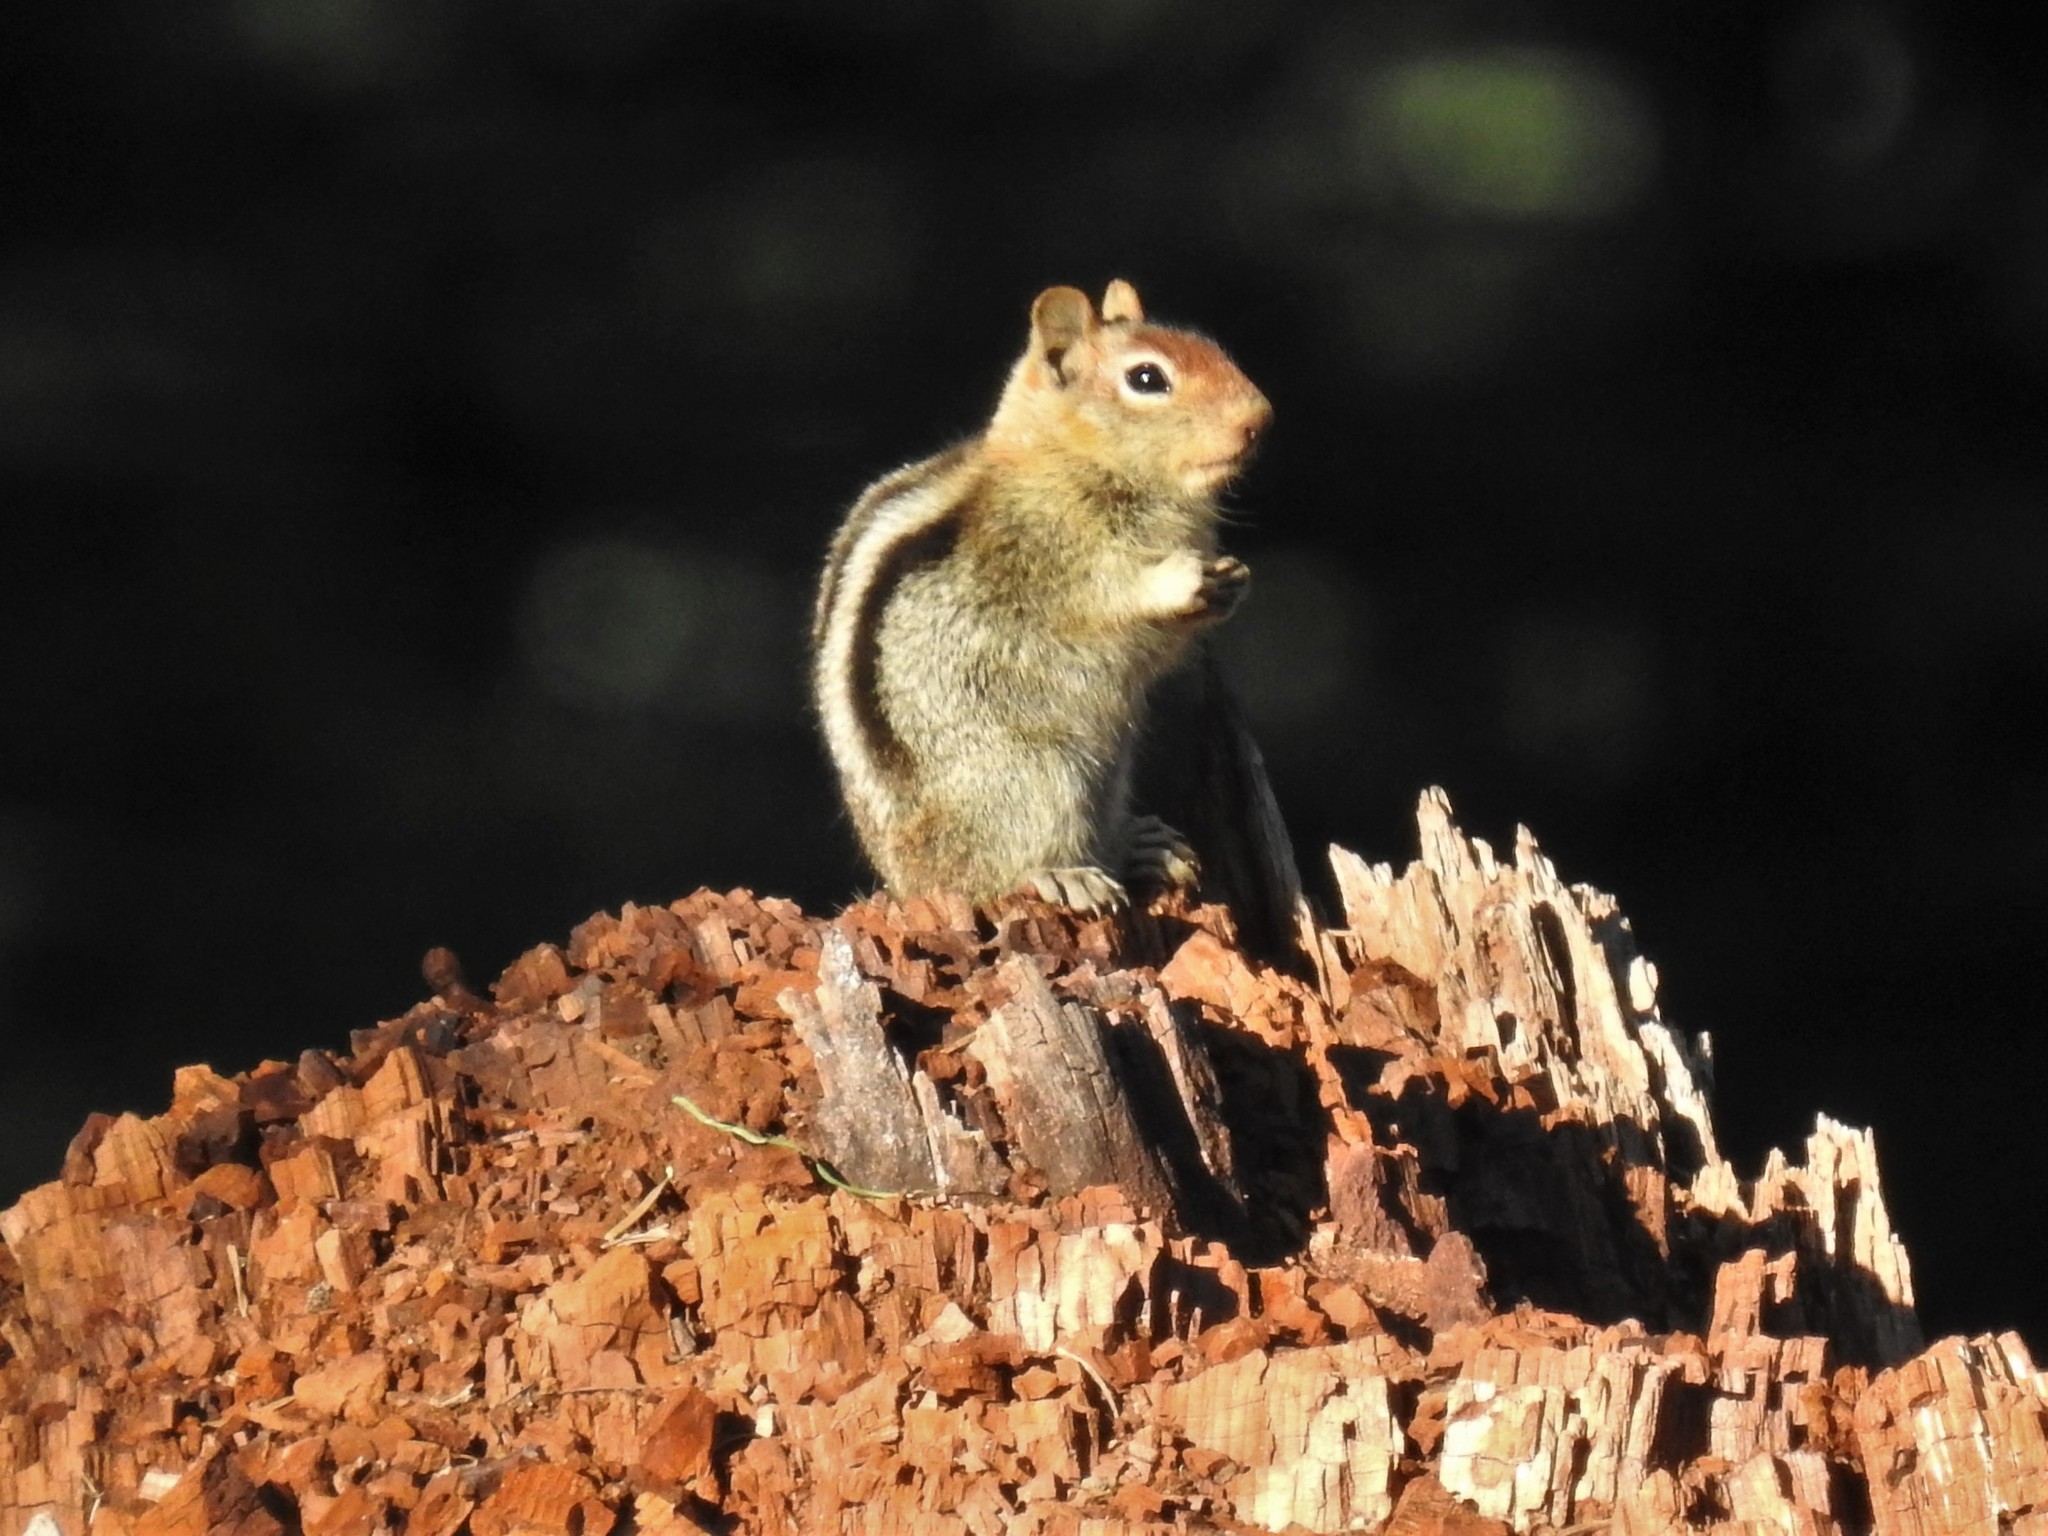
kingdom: Animalia
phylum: Chordata
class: Mammalia
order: Rodentia
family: Sciuridae
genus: Callospermophilus
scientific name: Callospermophilus lateralis
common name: Golden-mantled ground squirrel
